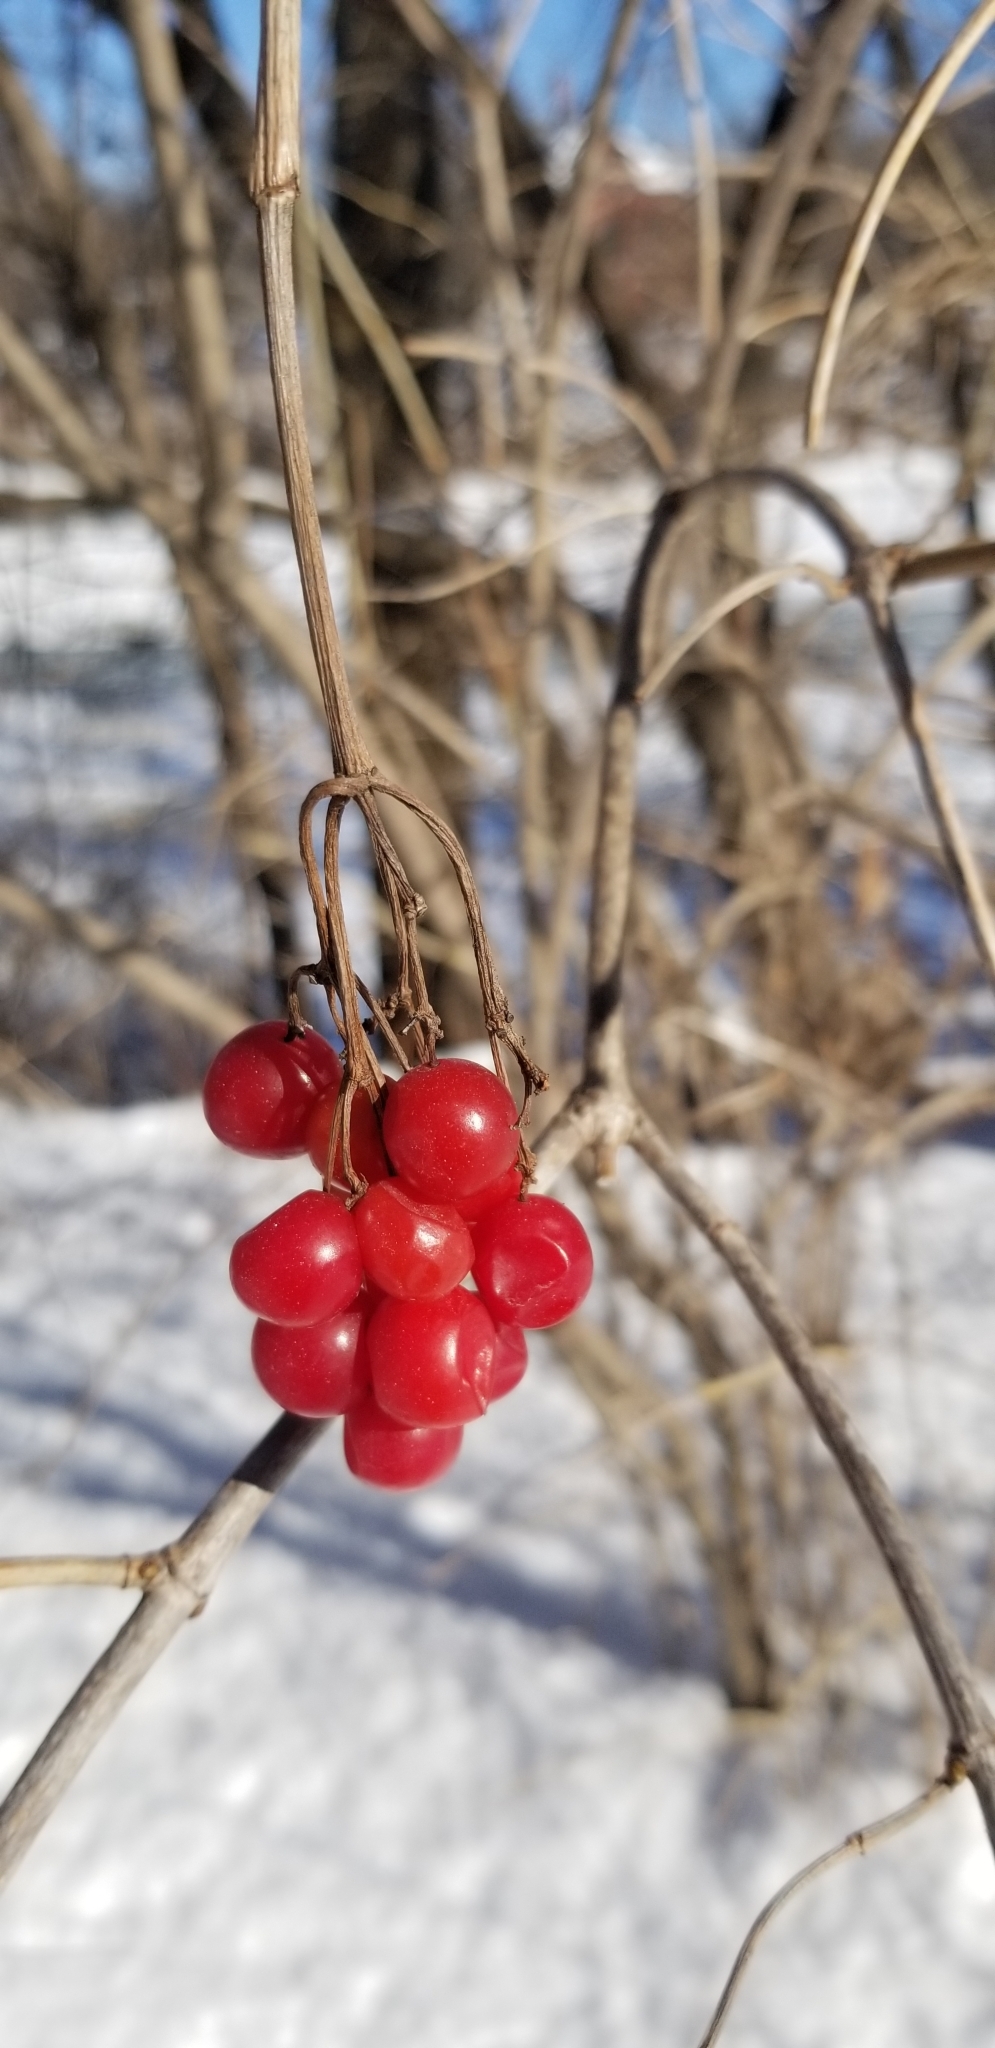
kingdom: Plantae
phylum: Tracheophyta
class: Magnoliopsida
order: Dipsacales
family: Viburnaceae
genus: Viburnum
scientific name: Viburnum opulus
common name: Guelder-rose
